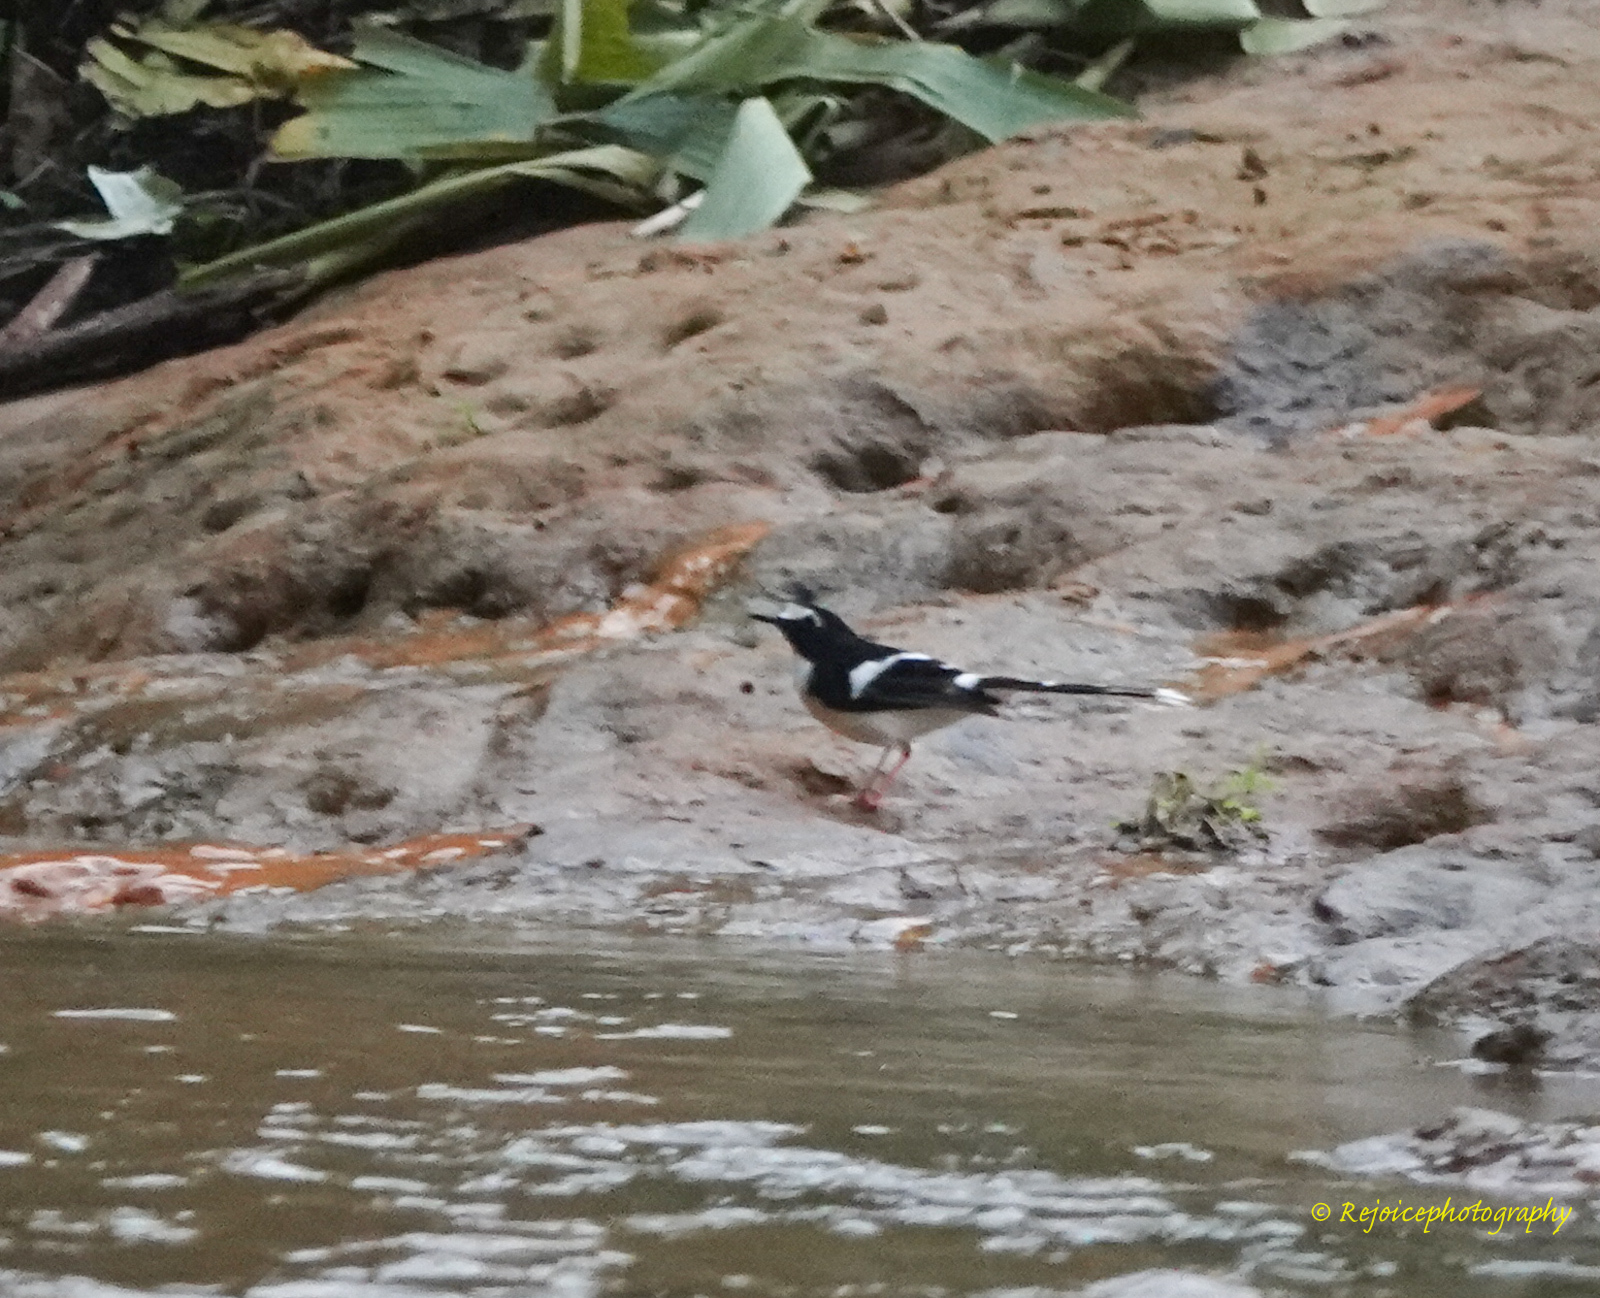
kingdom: Animalia
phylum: Chordata
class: Aves
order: Passeriformes
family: Muscicapidae
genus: Enicurus
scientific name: Enicurus immaculatus
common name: Black-backed forktail
